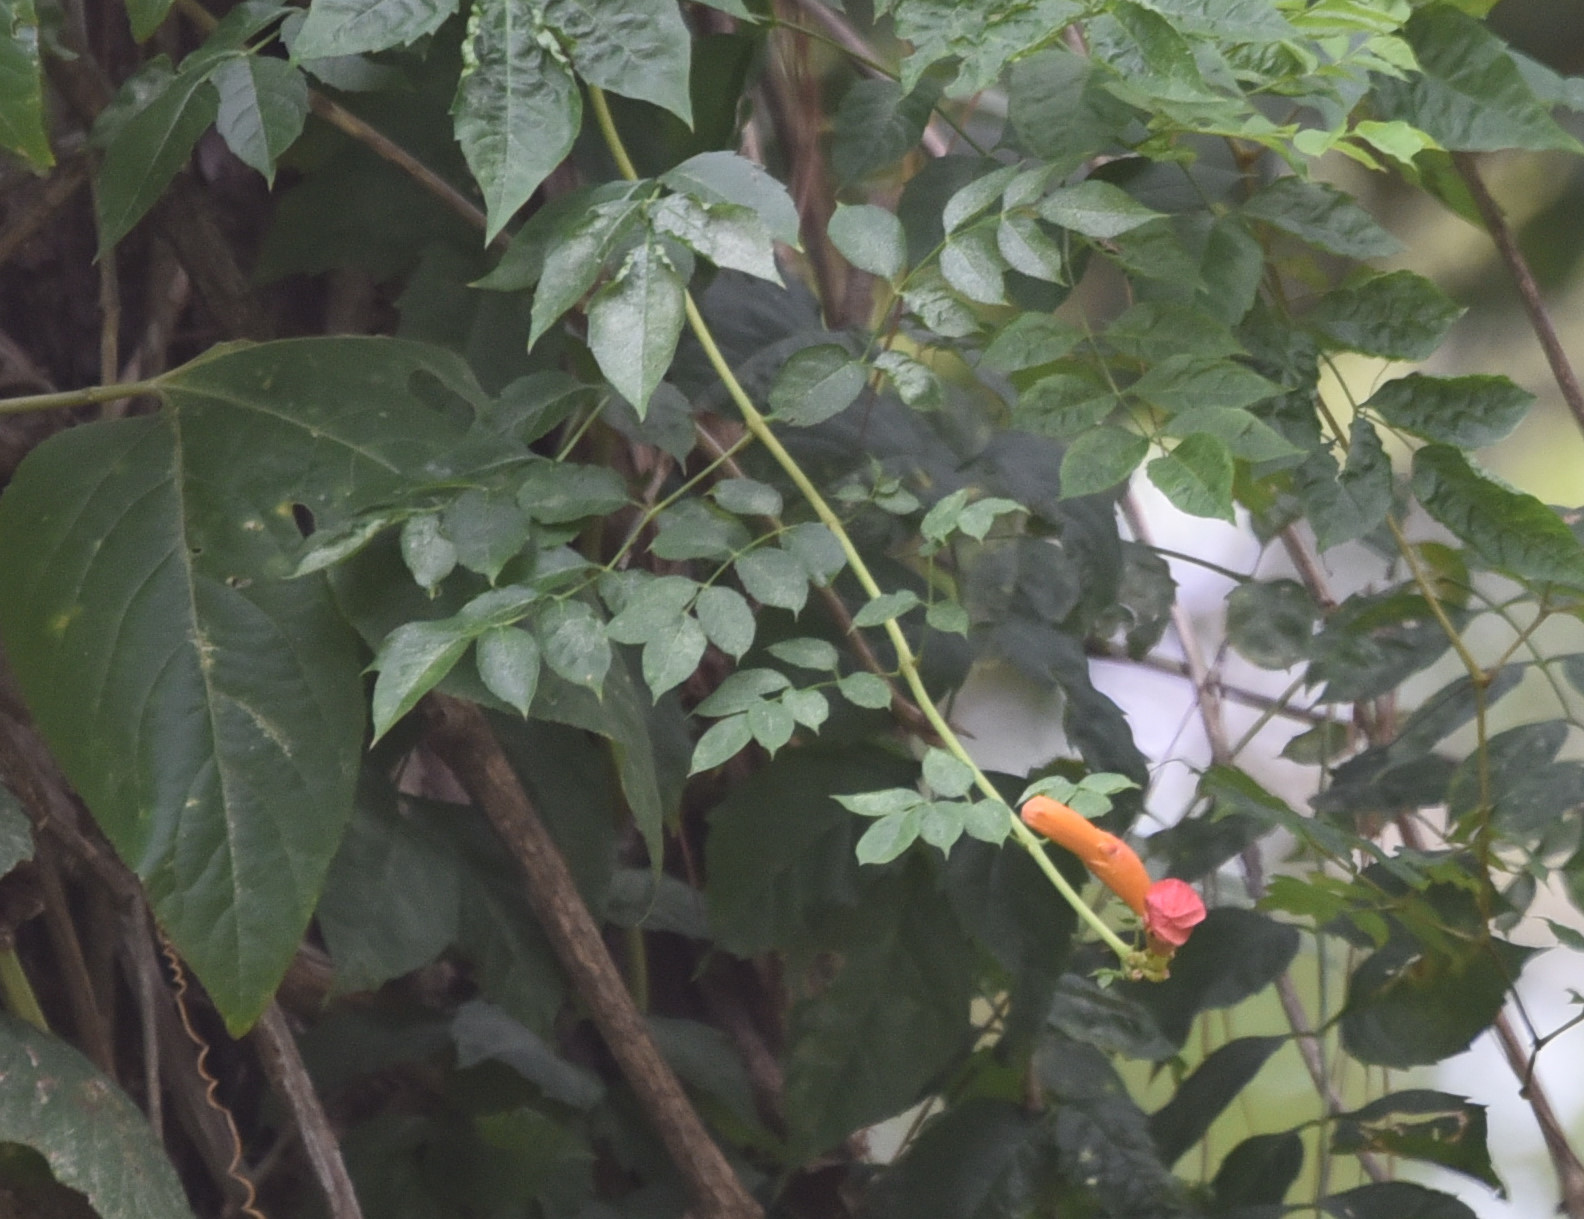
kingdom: Plantae
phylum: Tracheophyta
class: Magnoliopsida
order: Lamiales
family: Bignoniaceae
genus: Campsis
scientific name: Campsis radicans
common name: Trumpet-creeper
